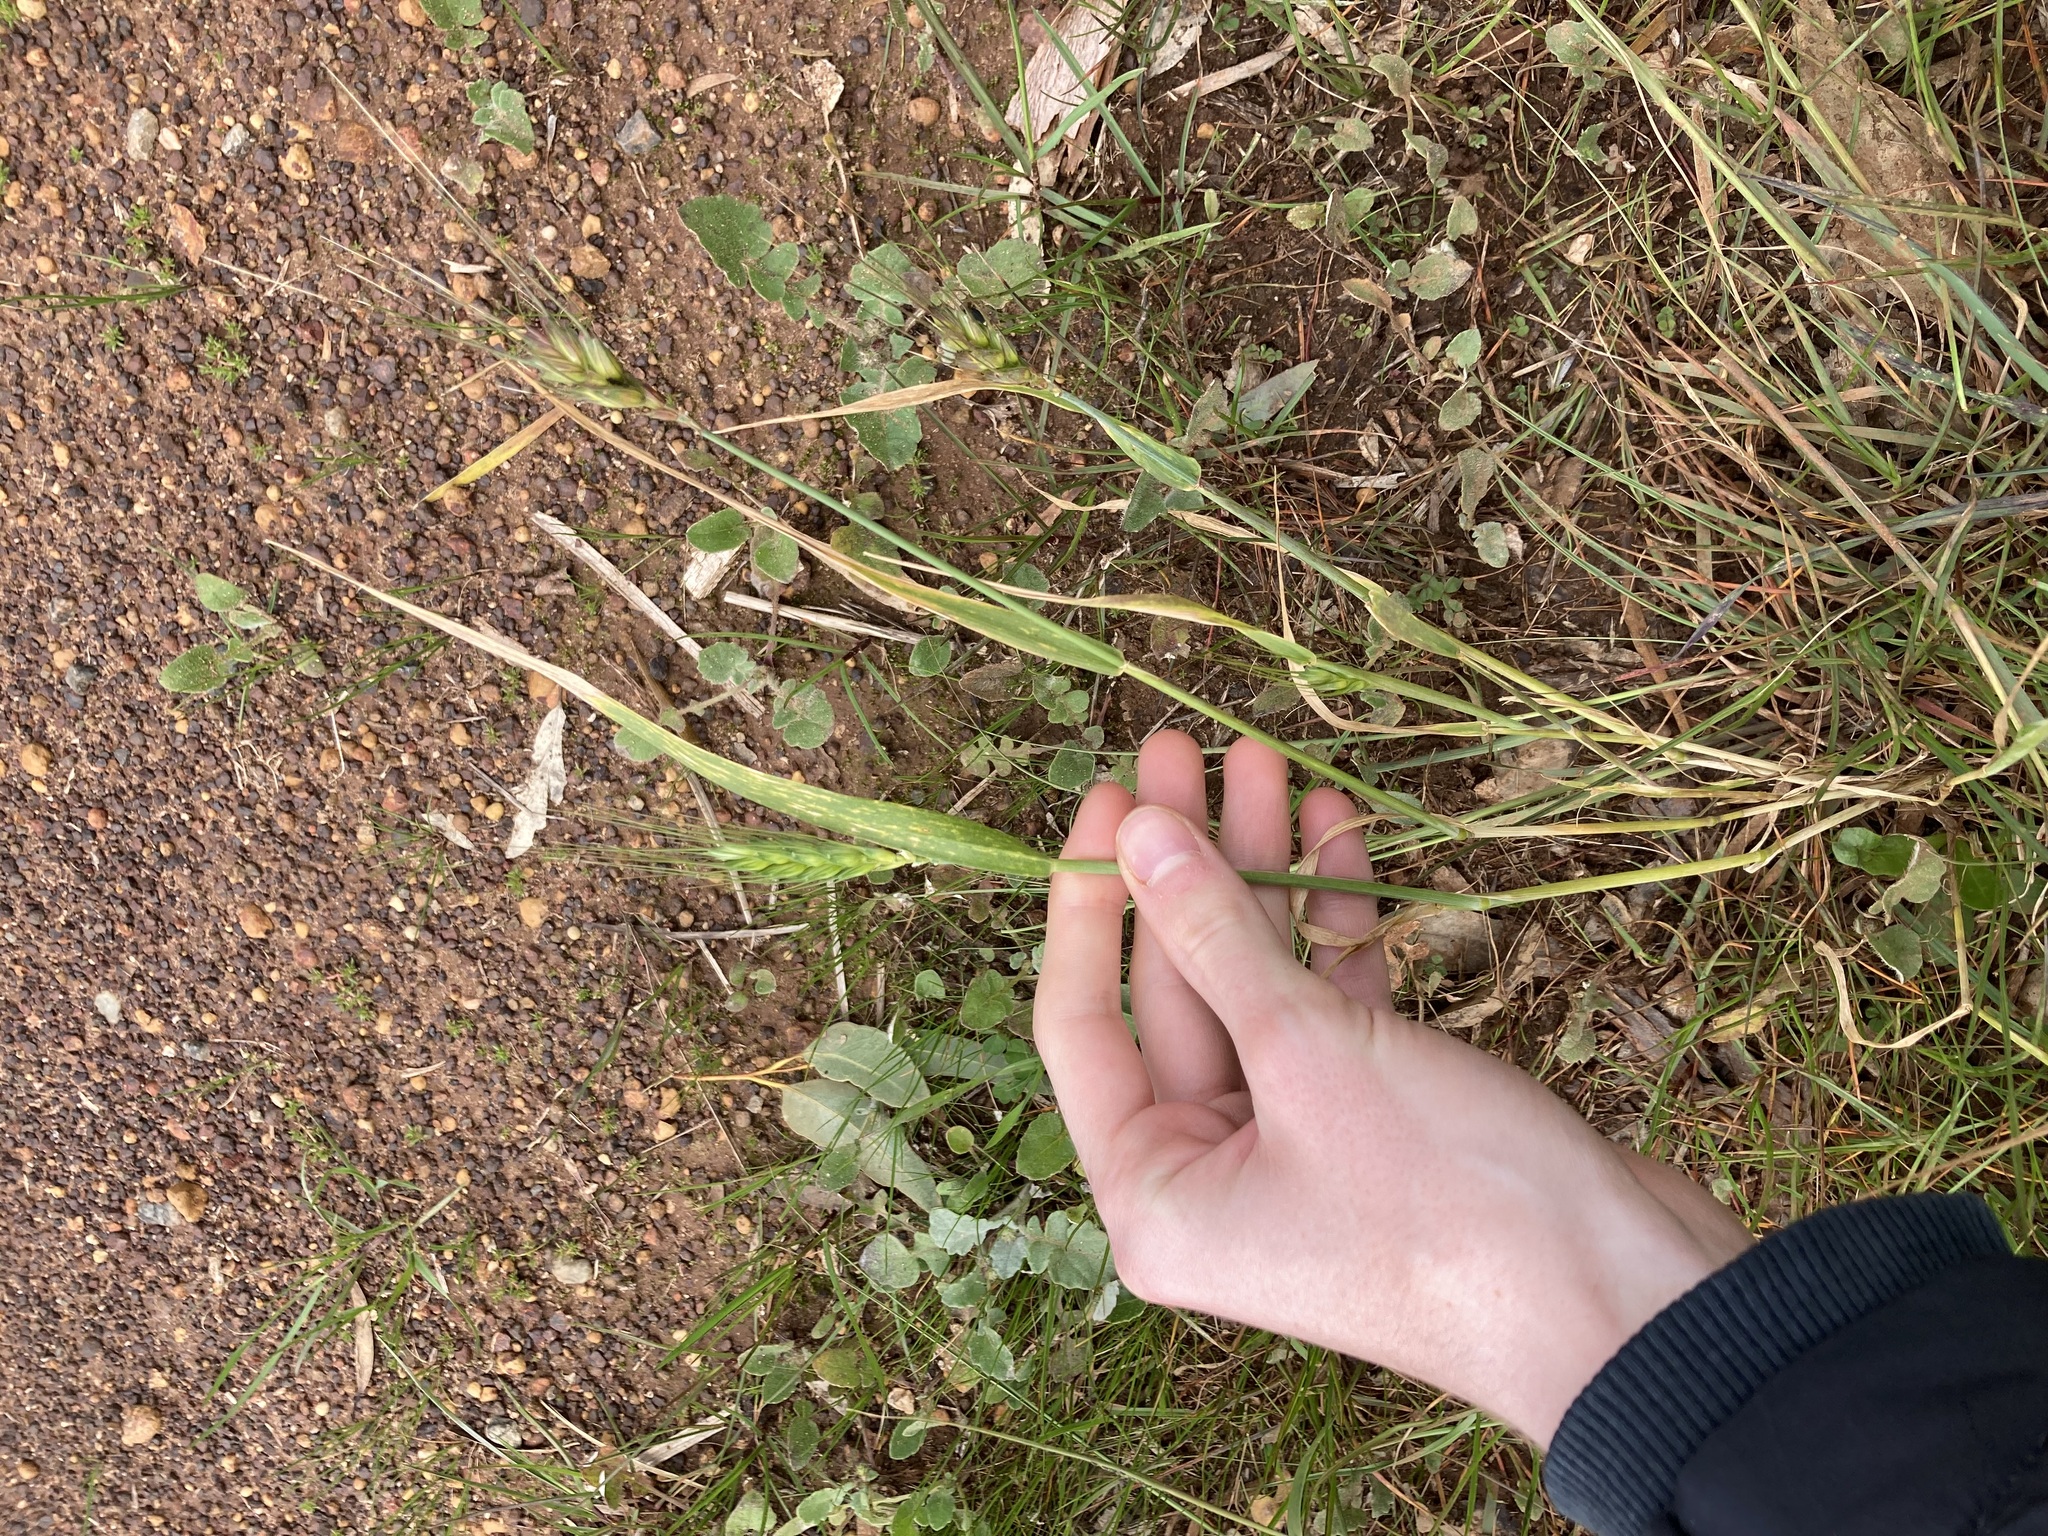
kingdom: Plantae
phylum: Tracheophyta
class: Liliopsida
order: Poales
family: Poaceae
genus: Triticum
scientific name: Triticum aestivum
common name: Common wheat
